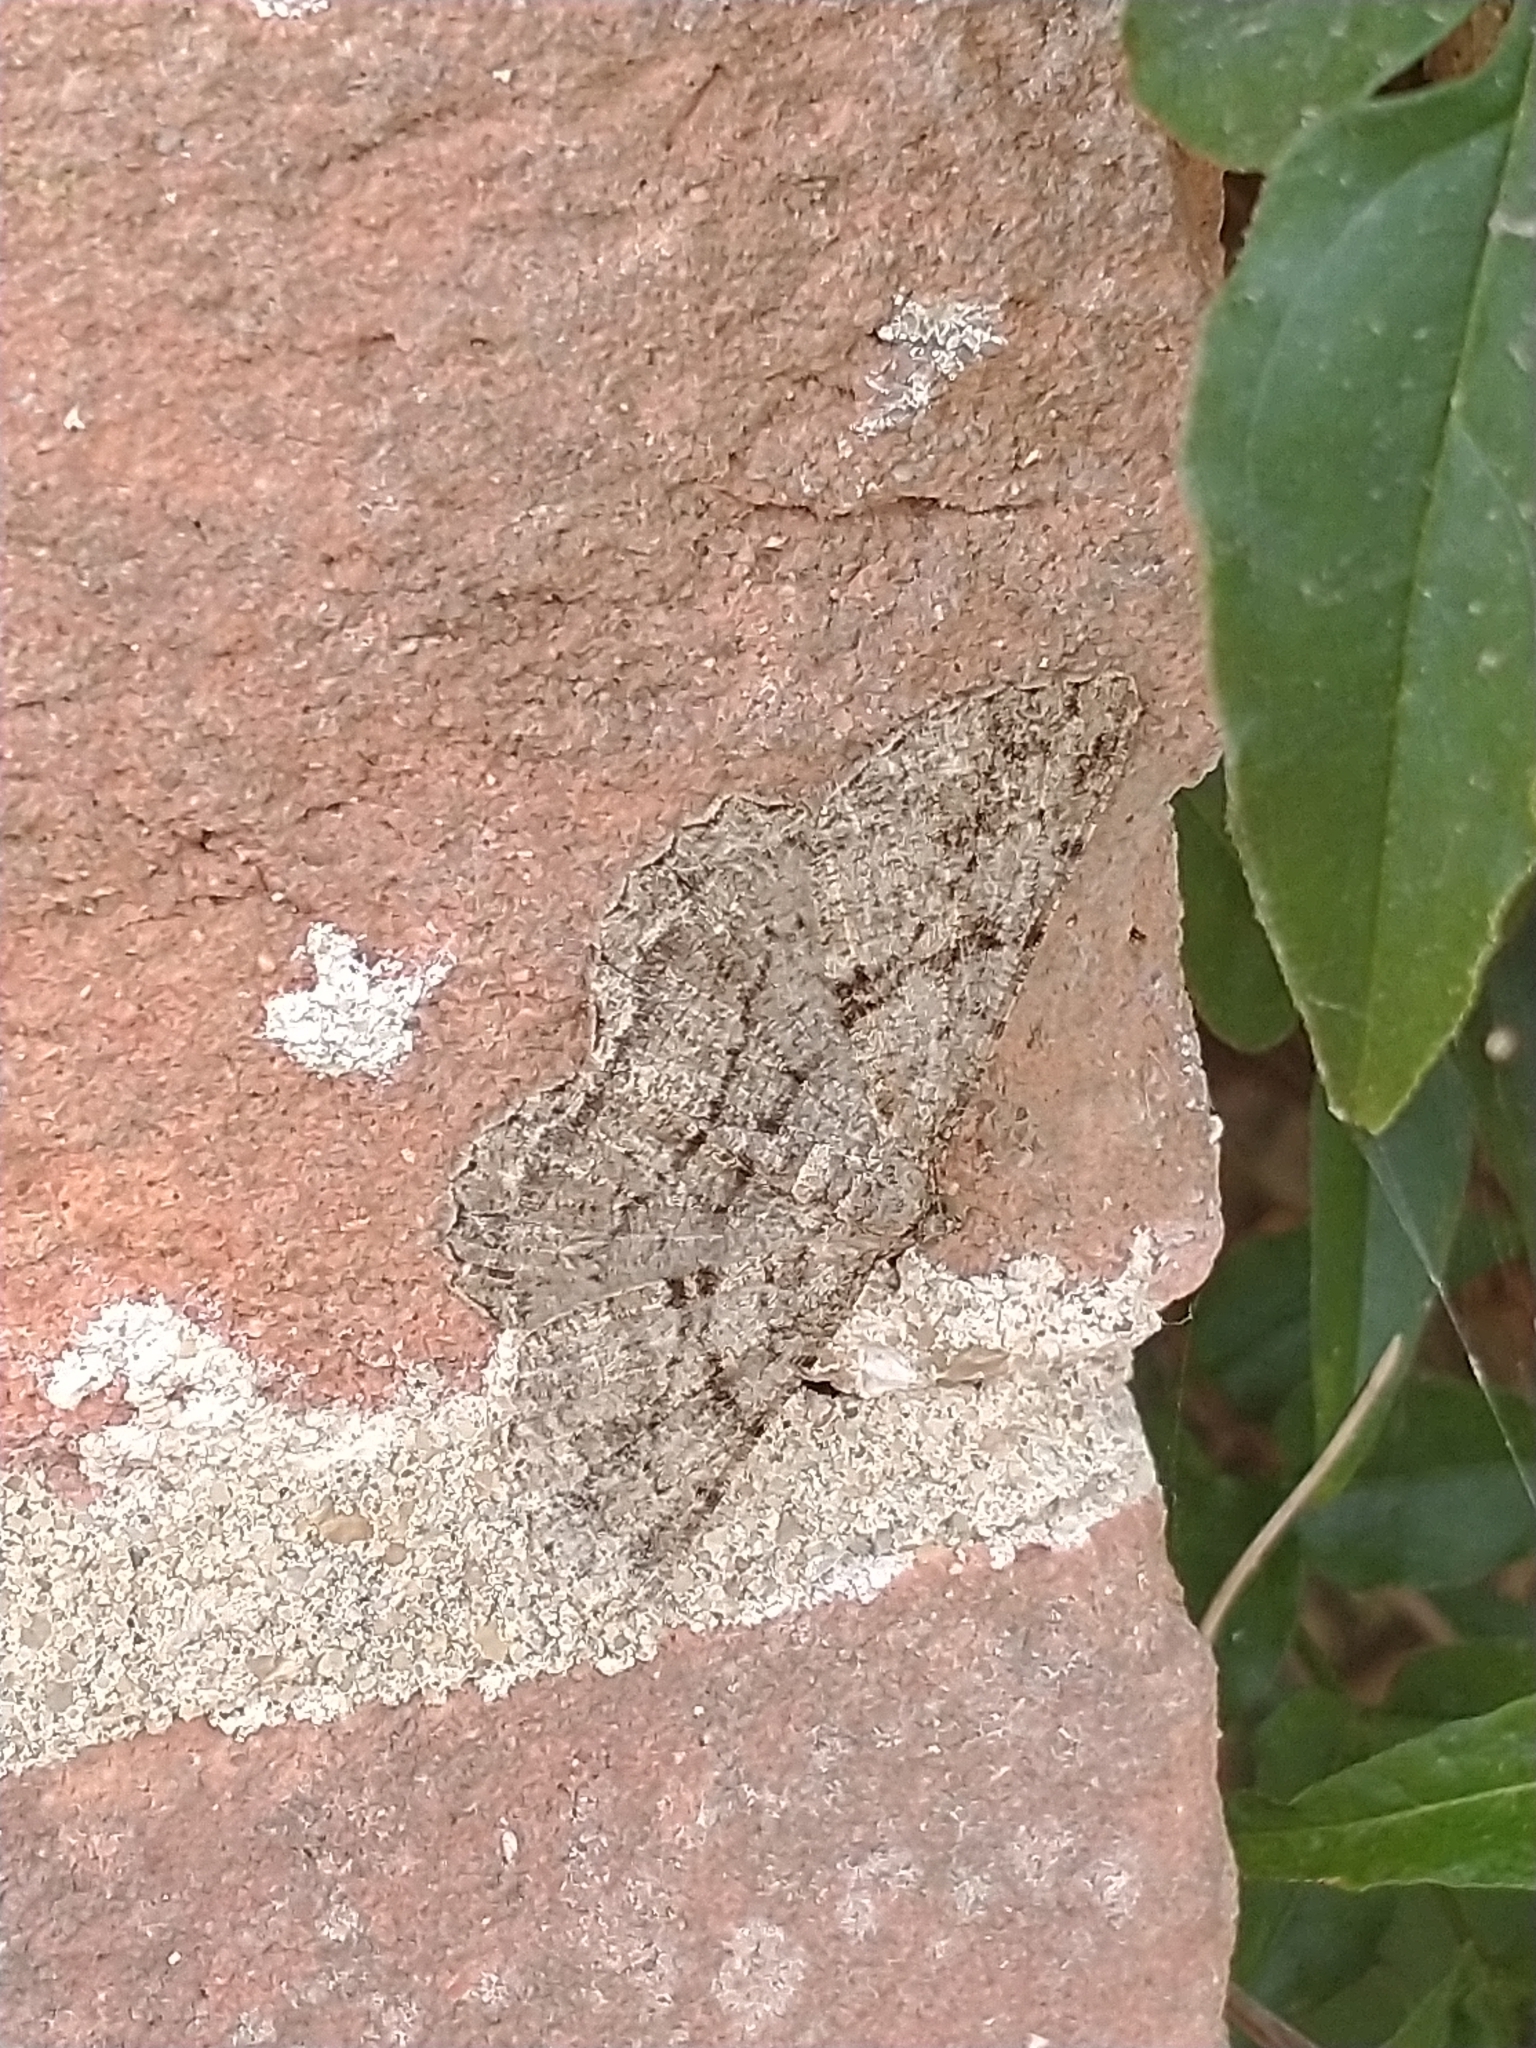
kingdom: Animalia
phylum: Arthropoda
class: Insecta
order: Lepidoptera
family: Geometridae
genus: Peribatodes
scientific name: Peribatodes rhomboidaria
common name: Willow beauty
